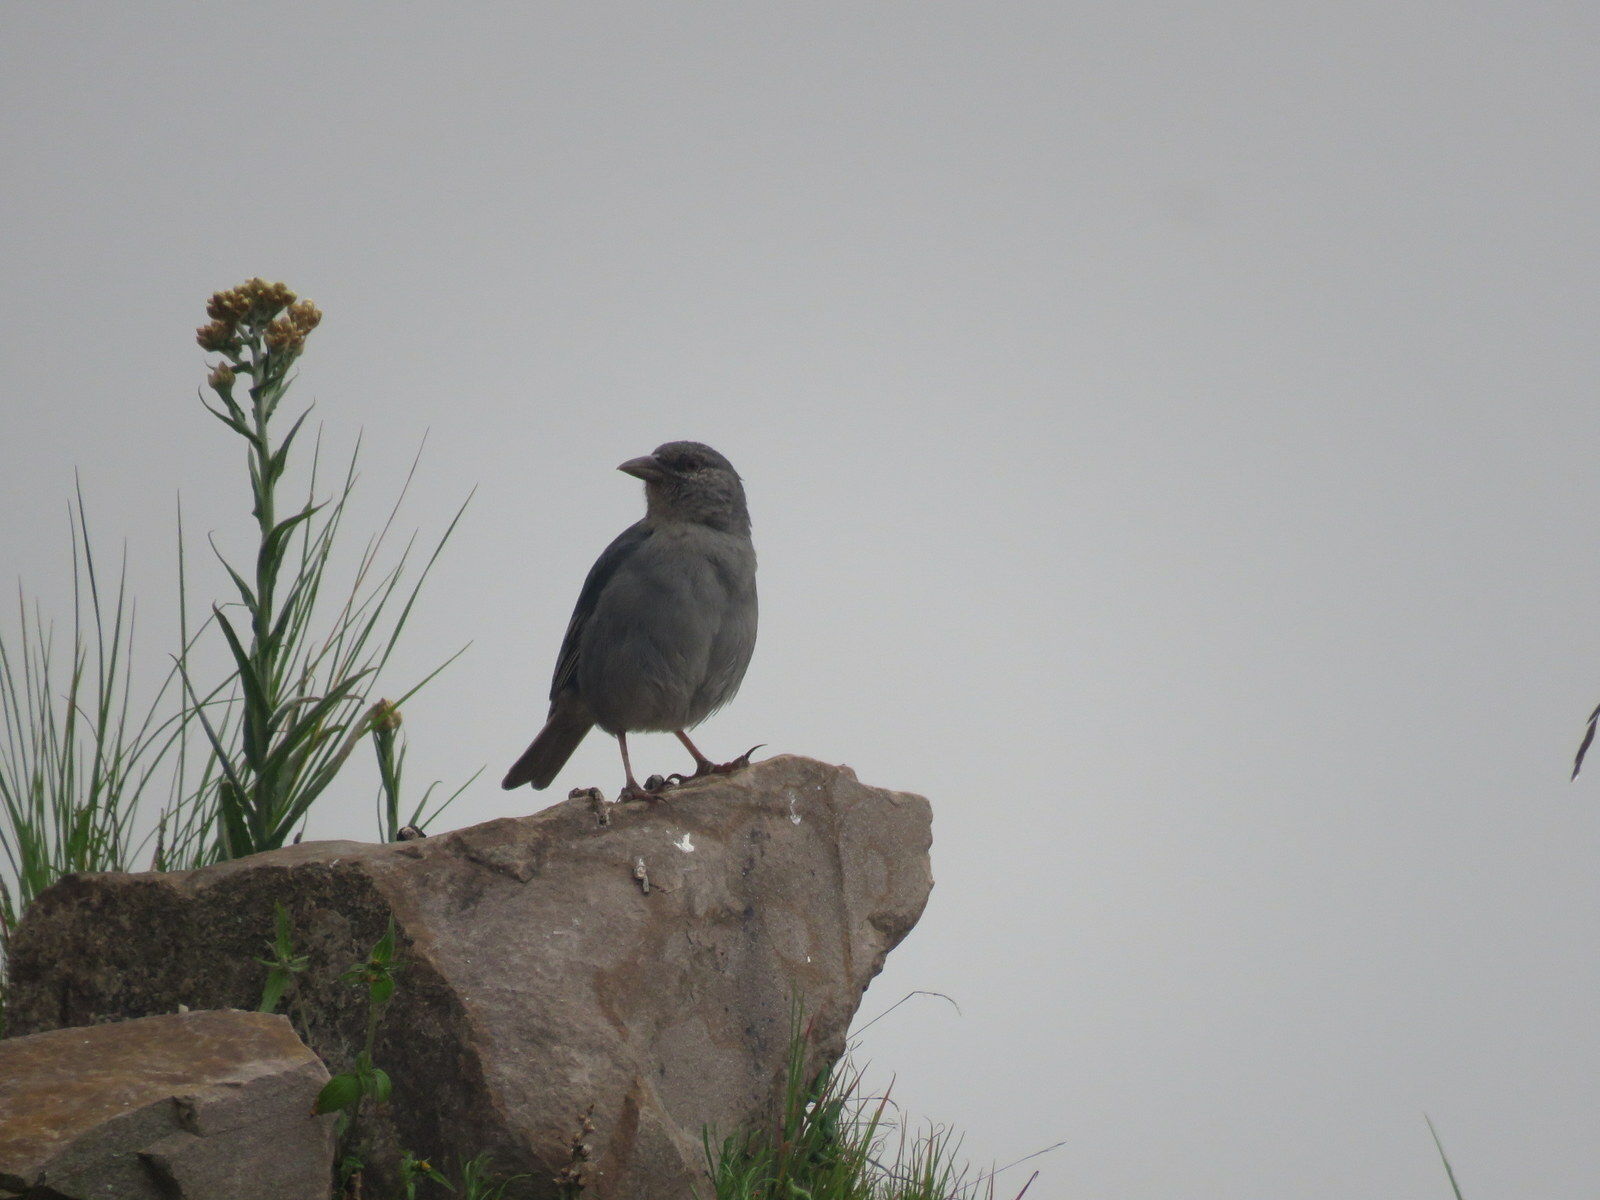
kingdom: Animalia
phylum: Chordata
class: Aves
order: Passeriformes
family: Thraupidae
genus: Idiopsar
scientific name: Idiopsar brachyurus
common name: Short-tailed finch
